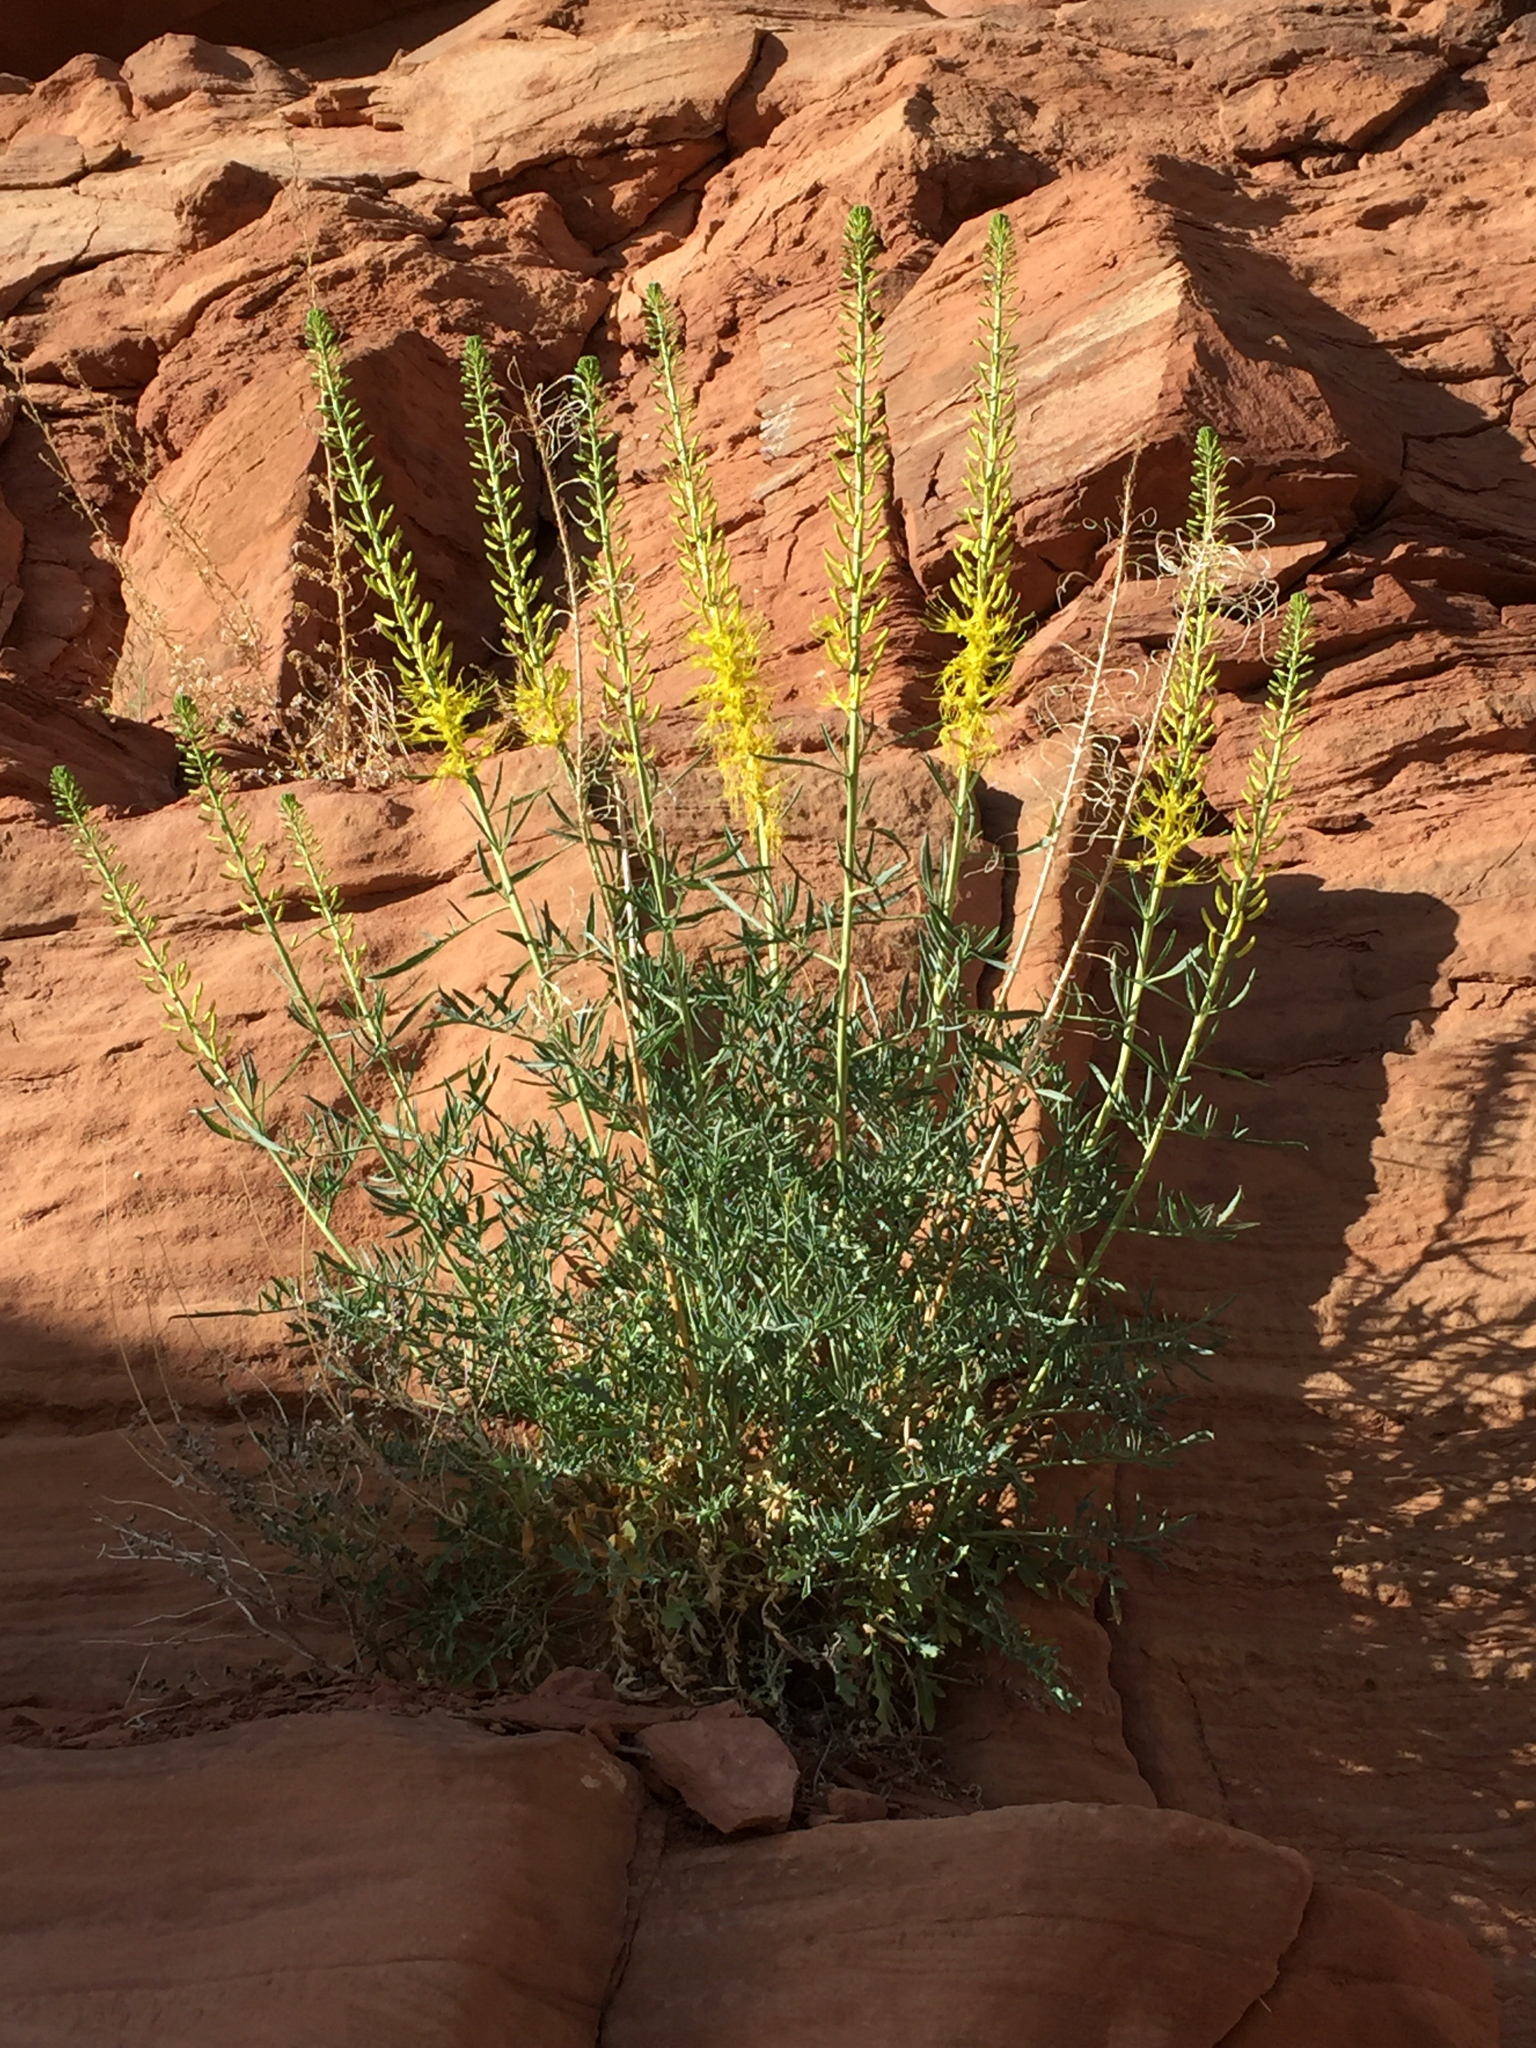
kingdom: Plantae
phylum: Tracheophyta
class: Magnoliopsida
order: Brassicales
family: Brassicaceae
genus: Stanleya
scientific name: Stanleya pinnata
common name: Prince's-plume
